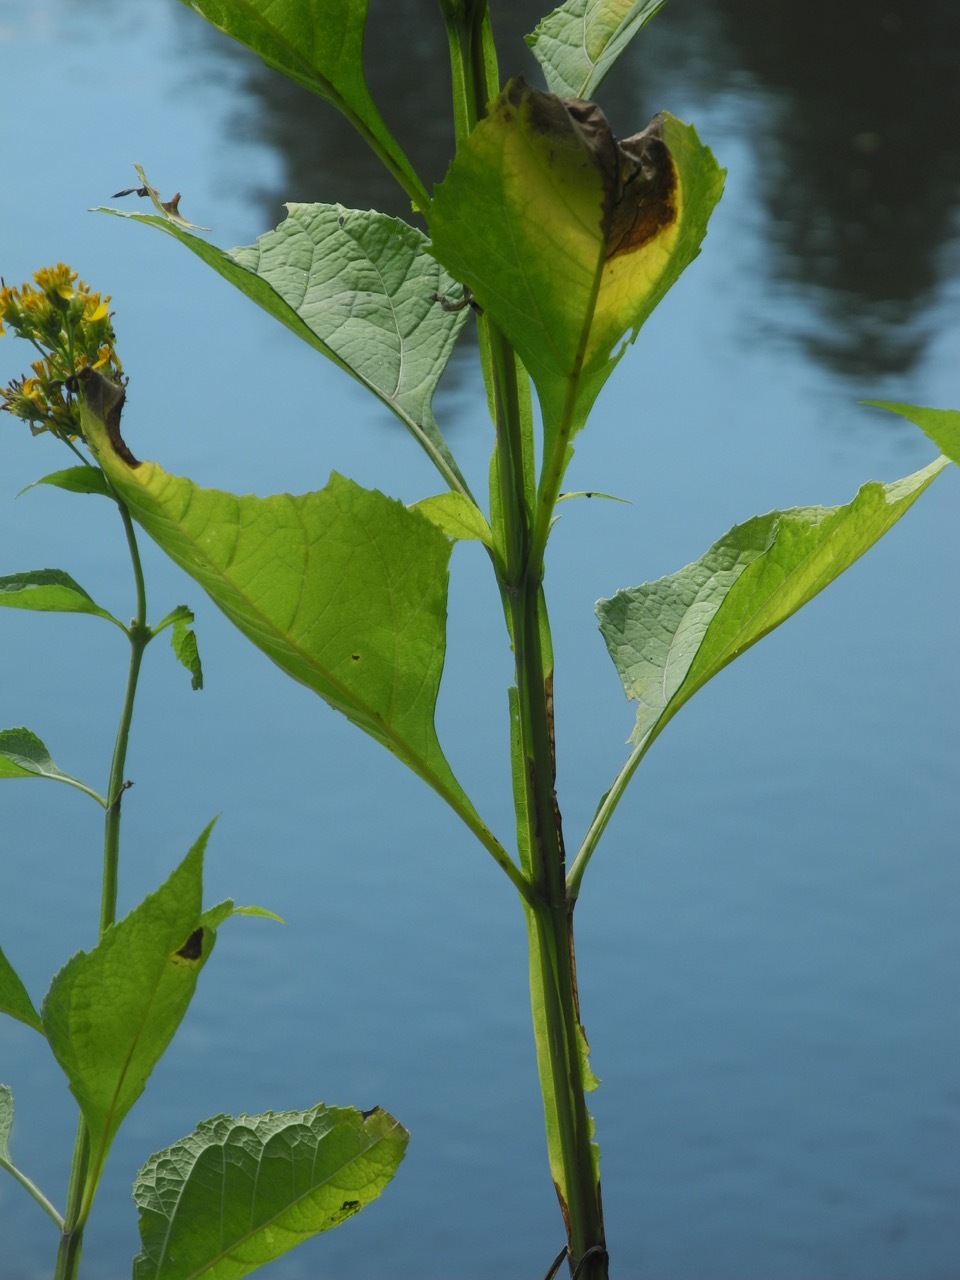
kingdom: Plantae
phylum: Tracheophyta
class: Magnoliopsida
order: Asterales
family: Asteraceae
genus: Verbesina
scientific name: Verbesina occidentalis
